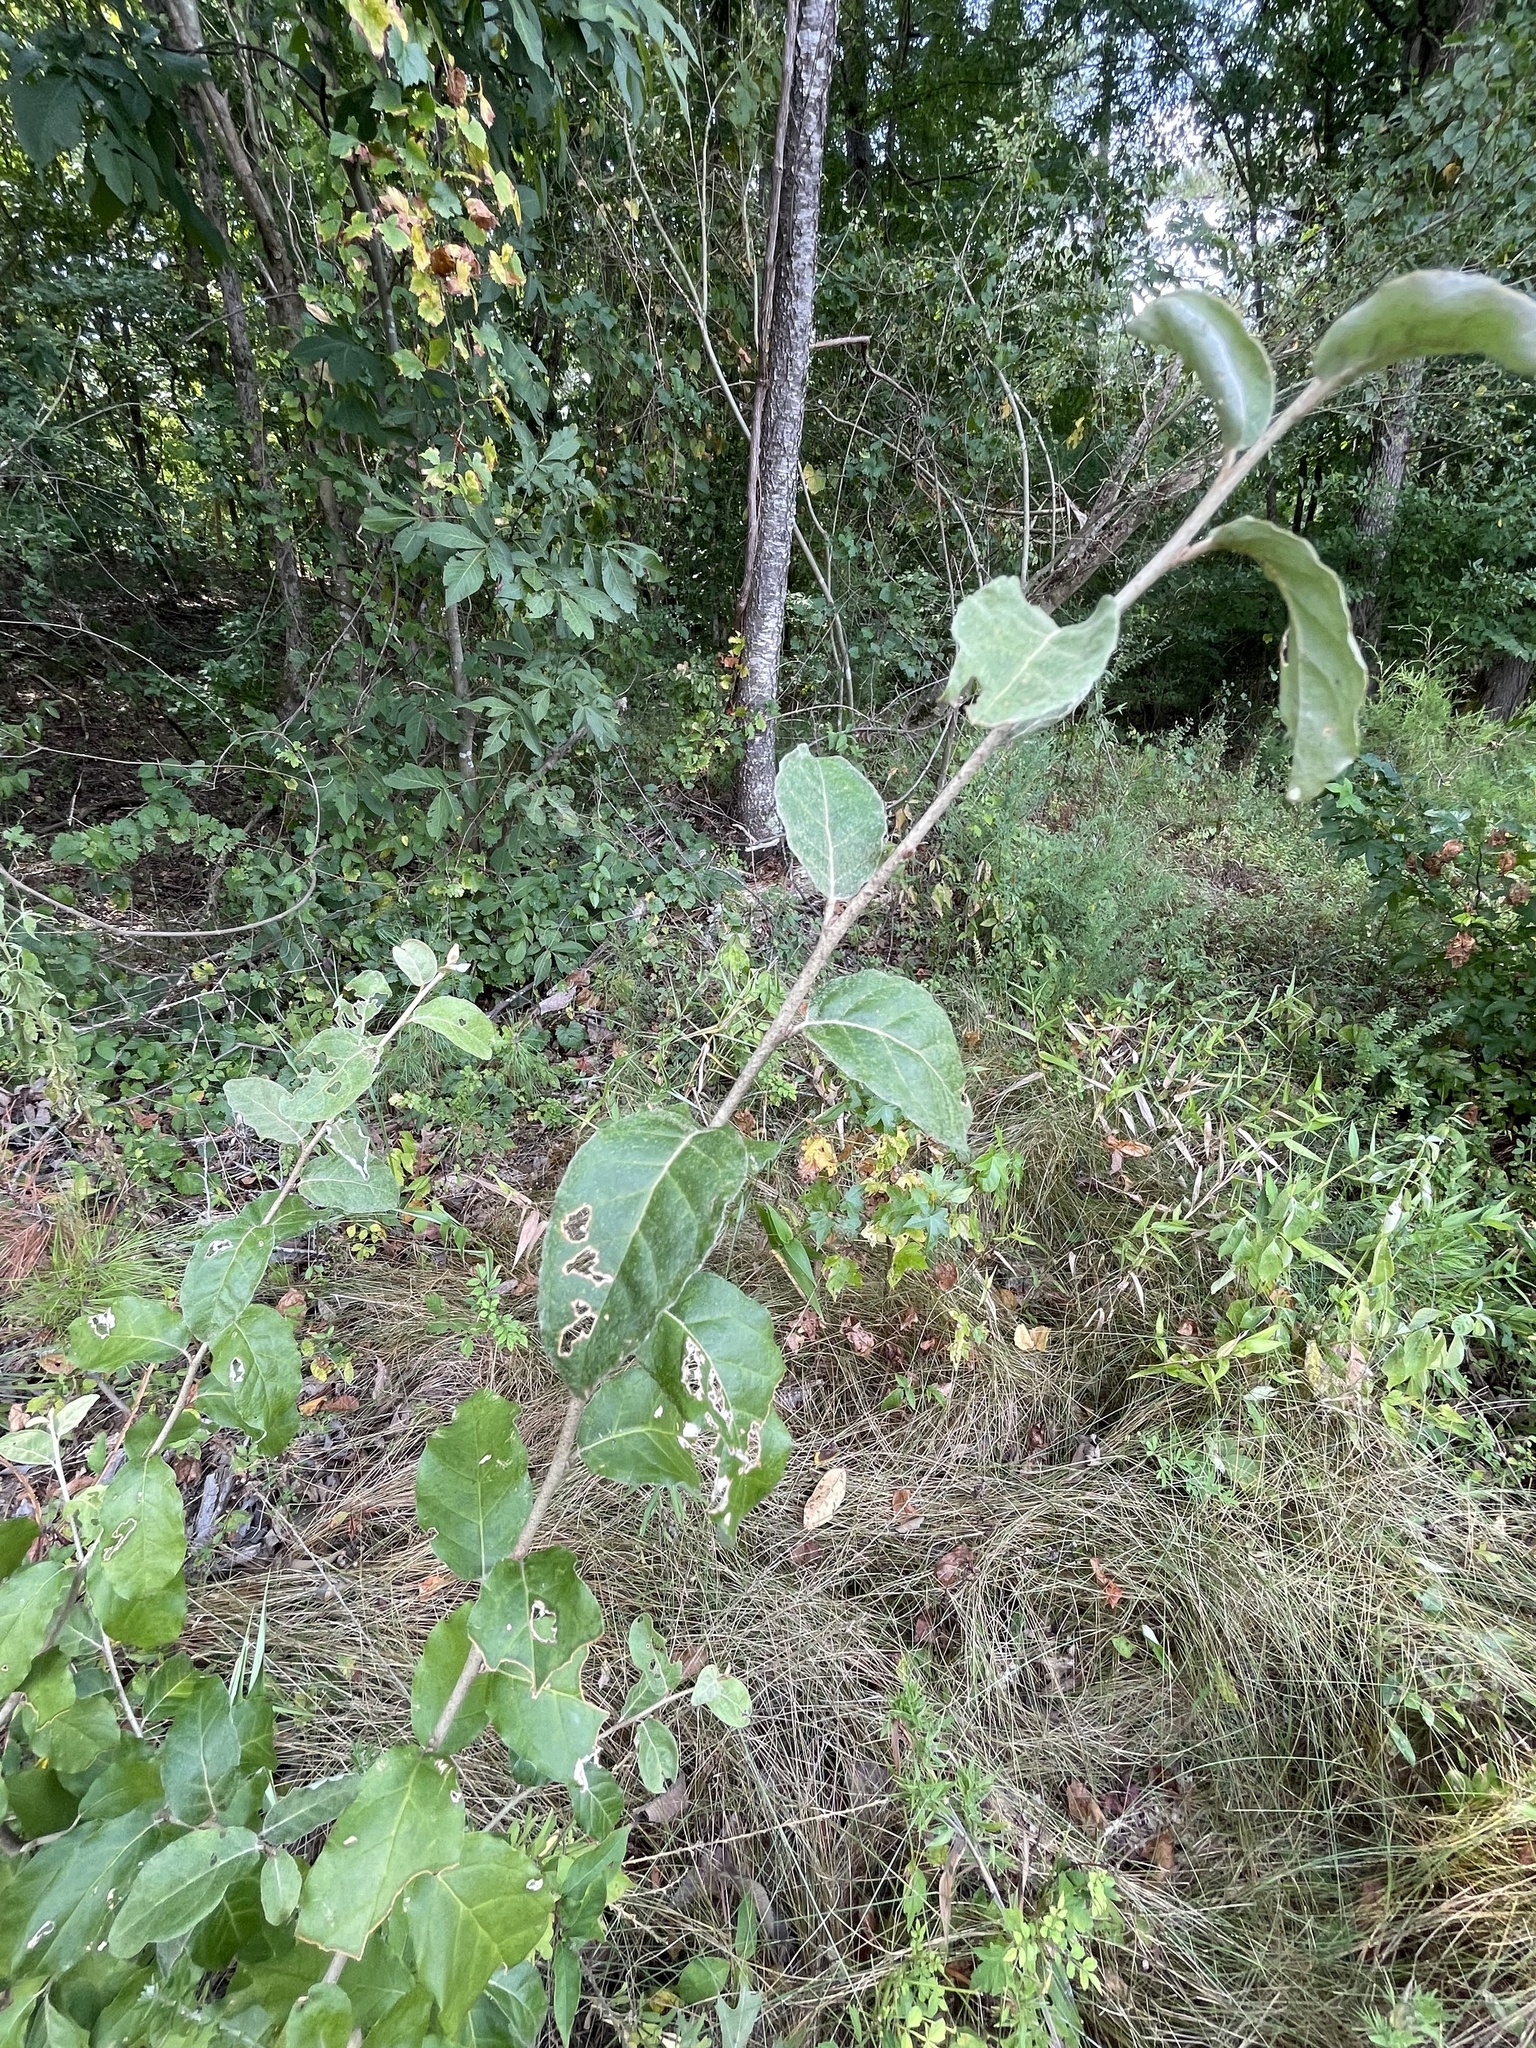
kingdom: Plantae
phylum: Tracheophyta
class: Magnoliopsida
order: Rosales
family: Elaeagnaceae
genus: Elaeagnus
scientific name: Elaeagnus umbellata
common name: Autumn olive
